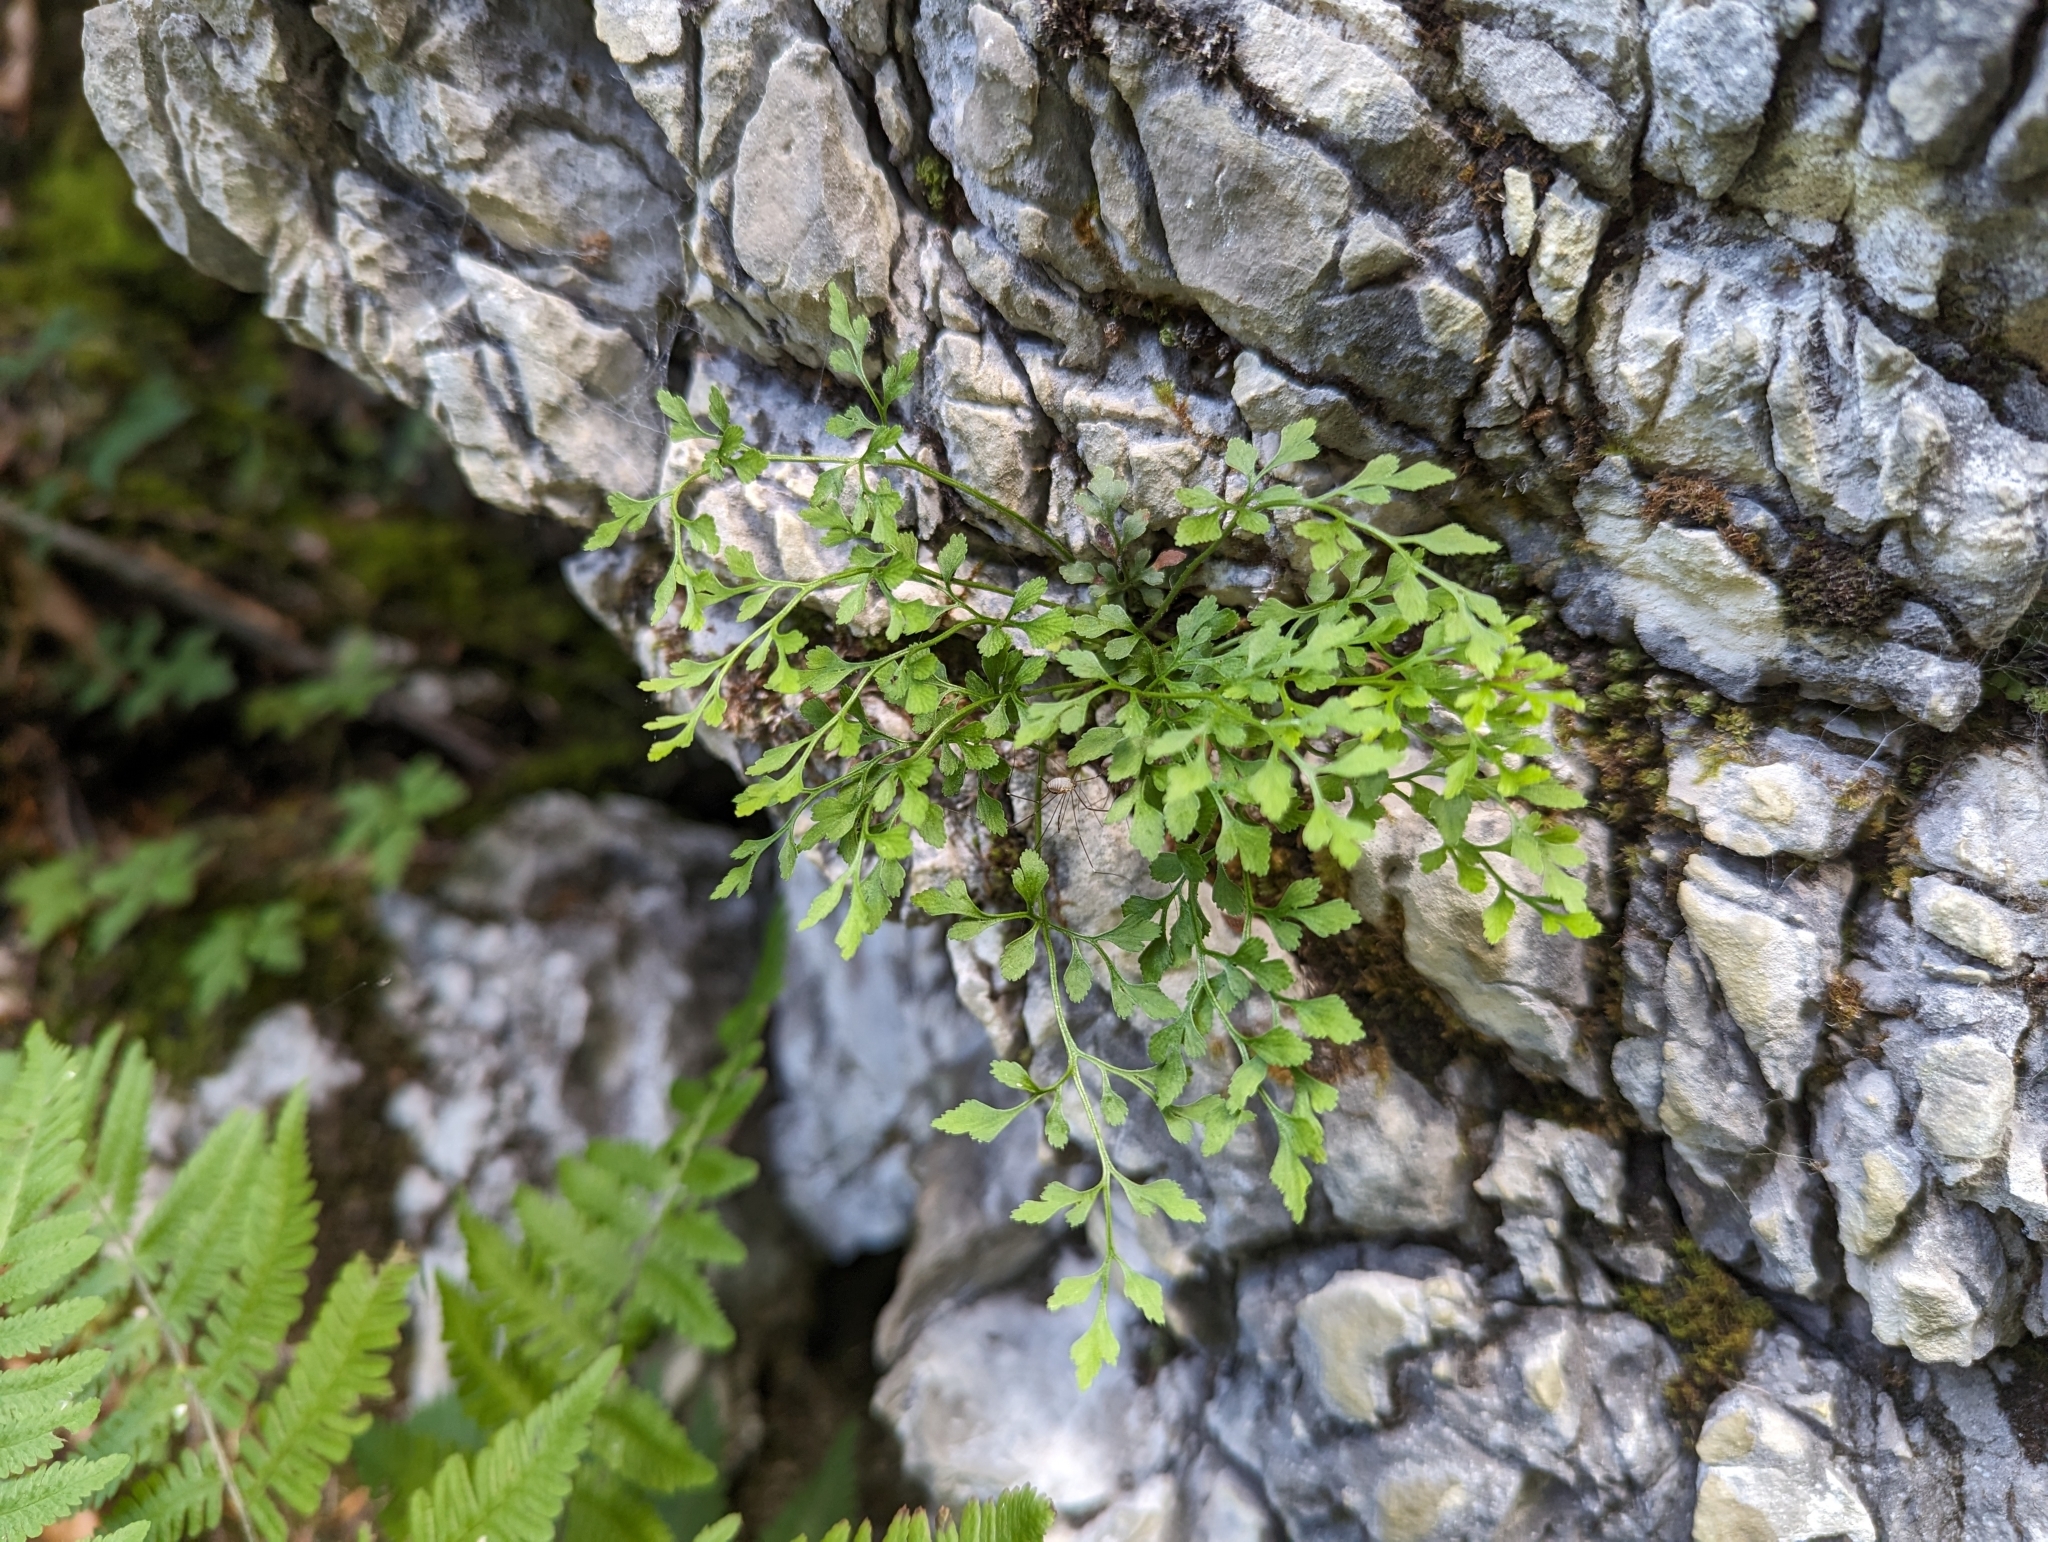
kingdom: Plantae
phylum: Tracheophyta
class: Polypodiopsida
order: Polypodiales
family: Aspleniaceae
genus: Asplenium
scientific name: Asplenium ruta-muraria
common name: Wall-rue
